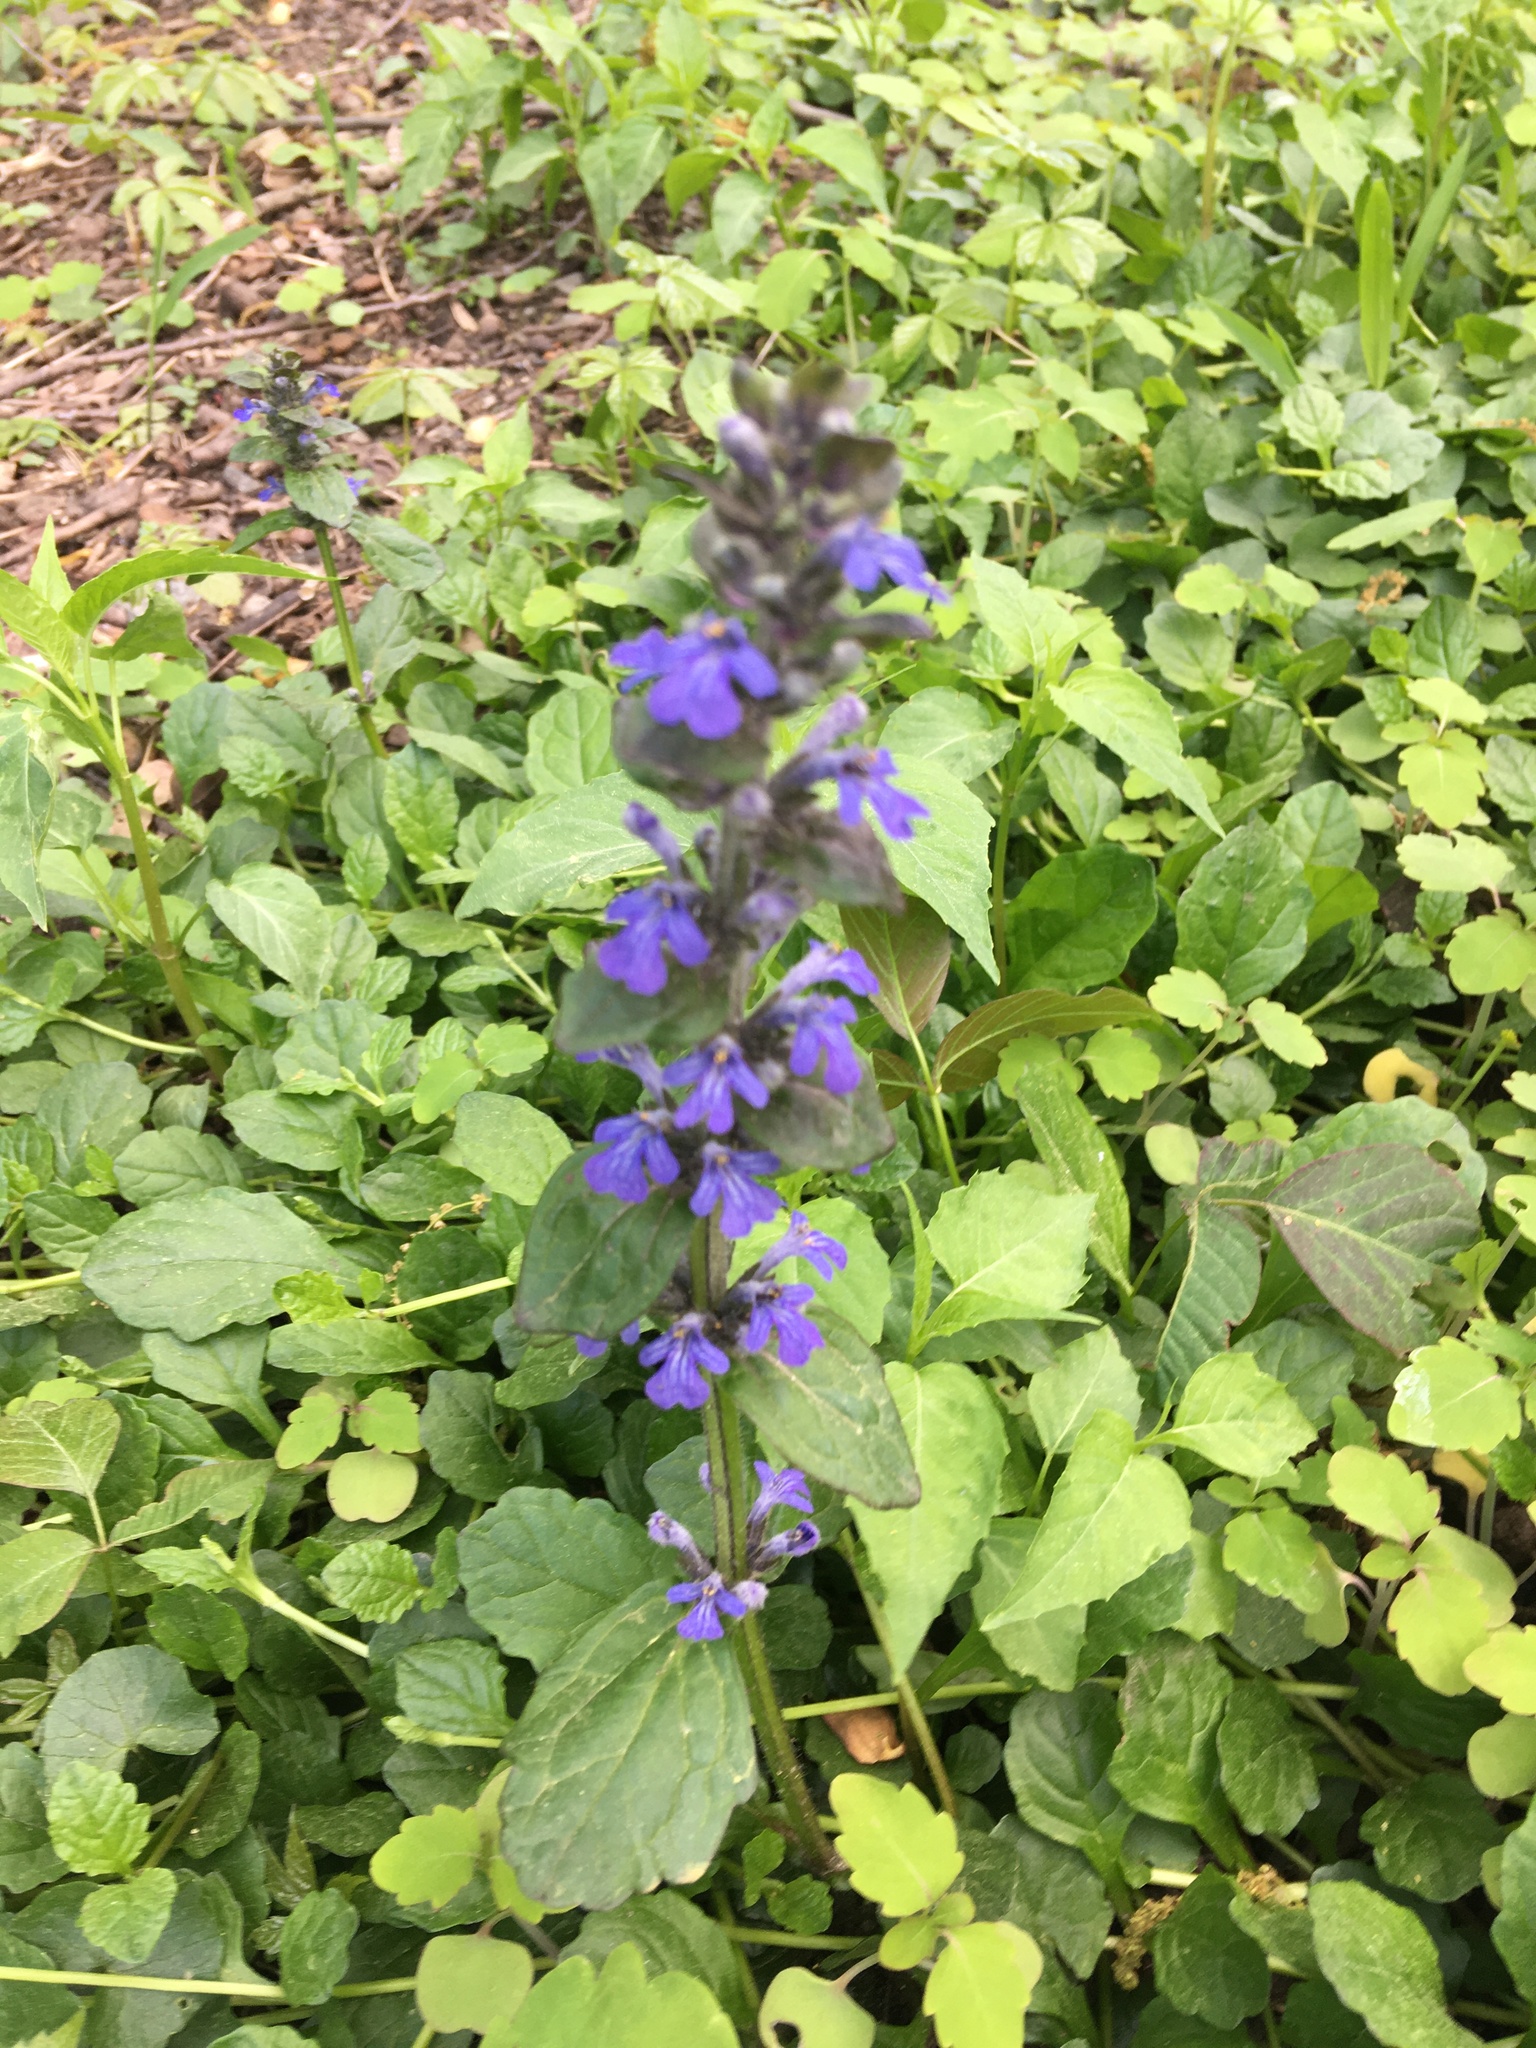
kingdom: Plantae
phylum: Tracheophyta
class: Magnoliopsida
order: Lamiales
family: Lamiaceae
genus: Ajuga
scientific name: Ajuga reptans
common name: Bugle
